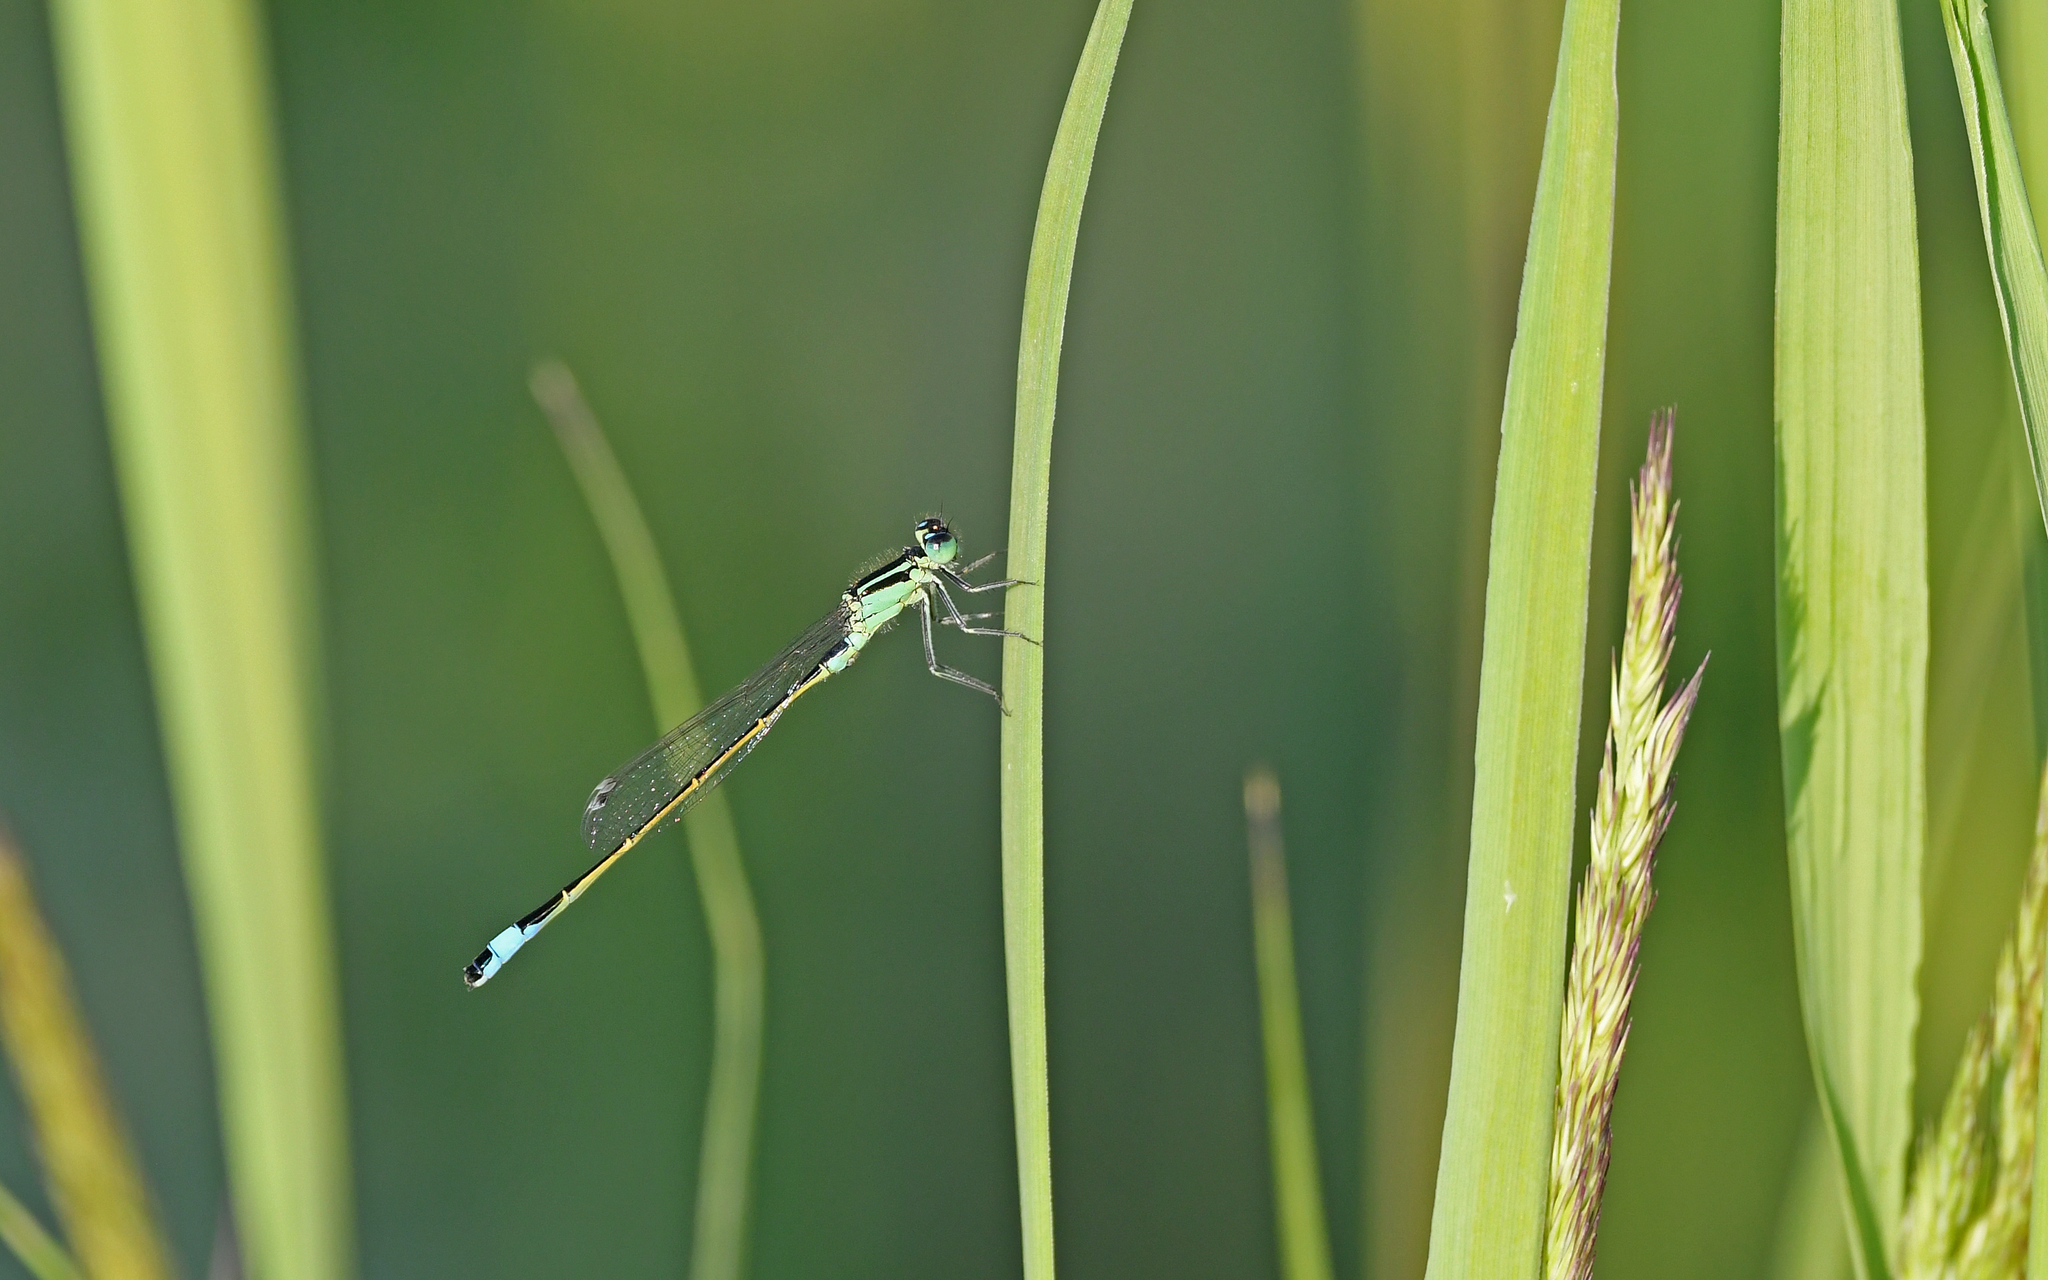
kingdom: Animalia
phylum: Arthropoda
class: Insecta
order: Odonata
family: Coenagrionidae
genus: Ischnura
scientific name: Ischnura elegans
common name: Blue-tailed damselfly
